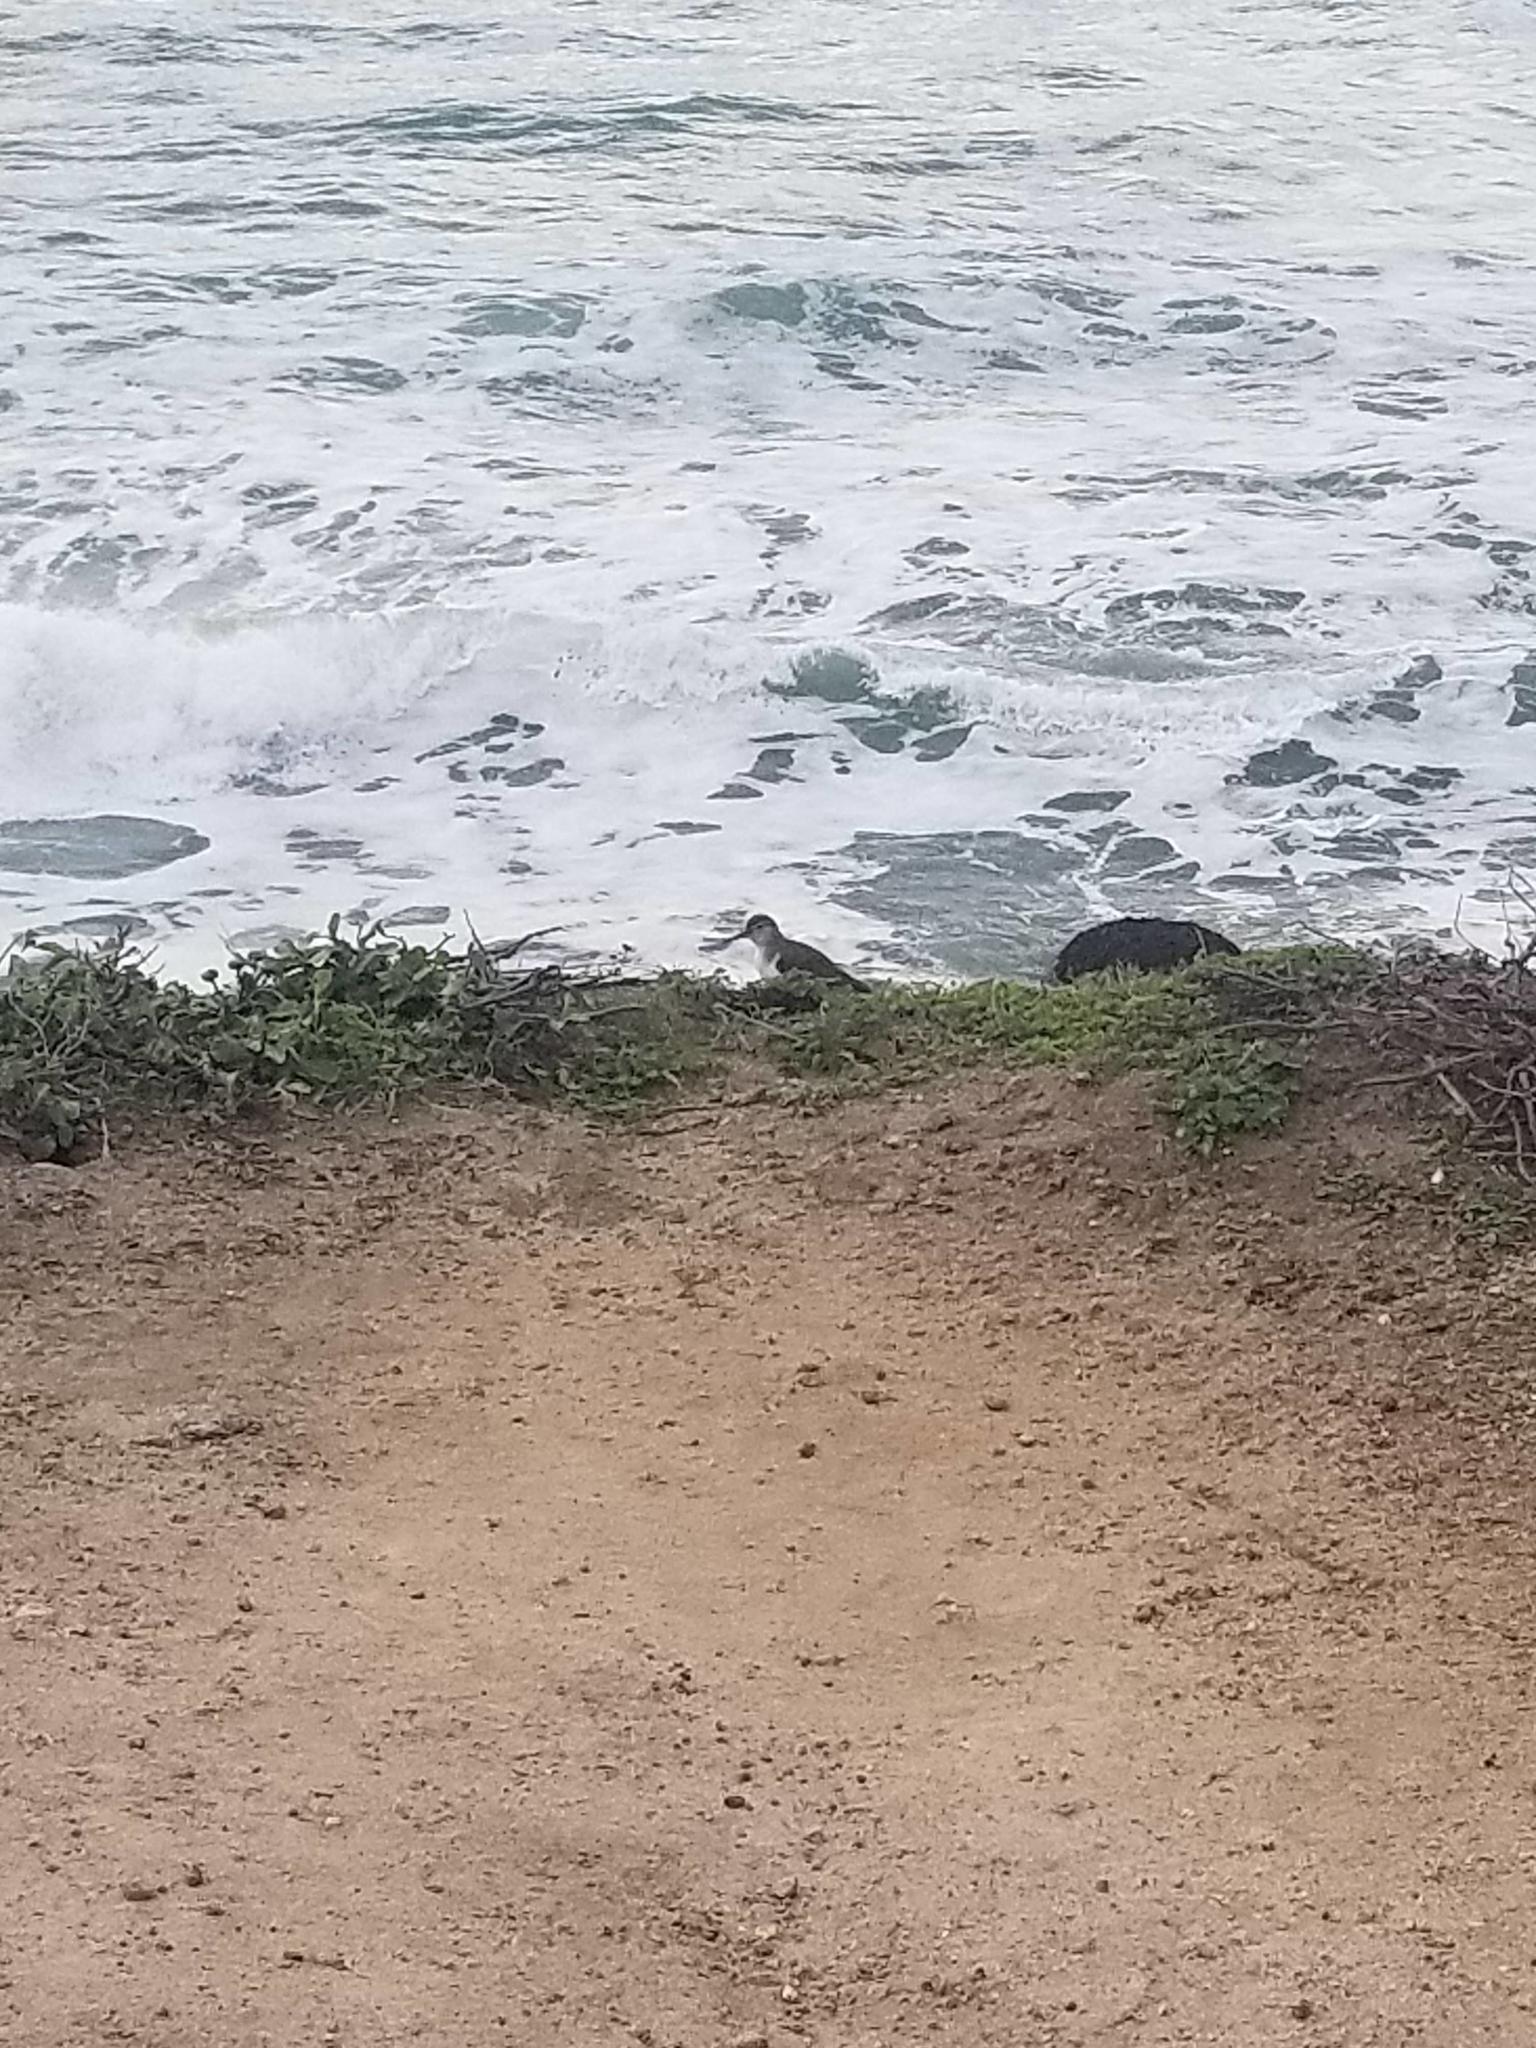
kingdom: Animalia
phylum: Chordata
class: Aves
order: Charadriiformes
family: Scolopacidae
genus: Actitis
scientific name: Actitis macularius
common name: Spotted sandpiper
